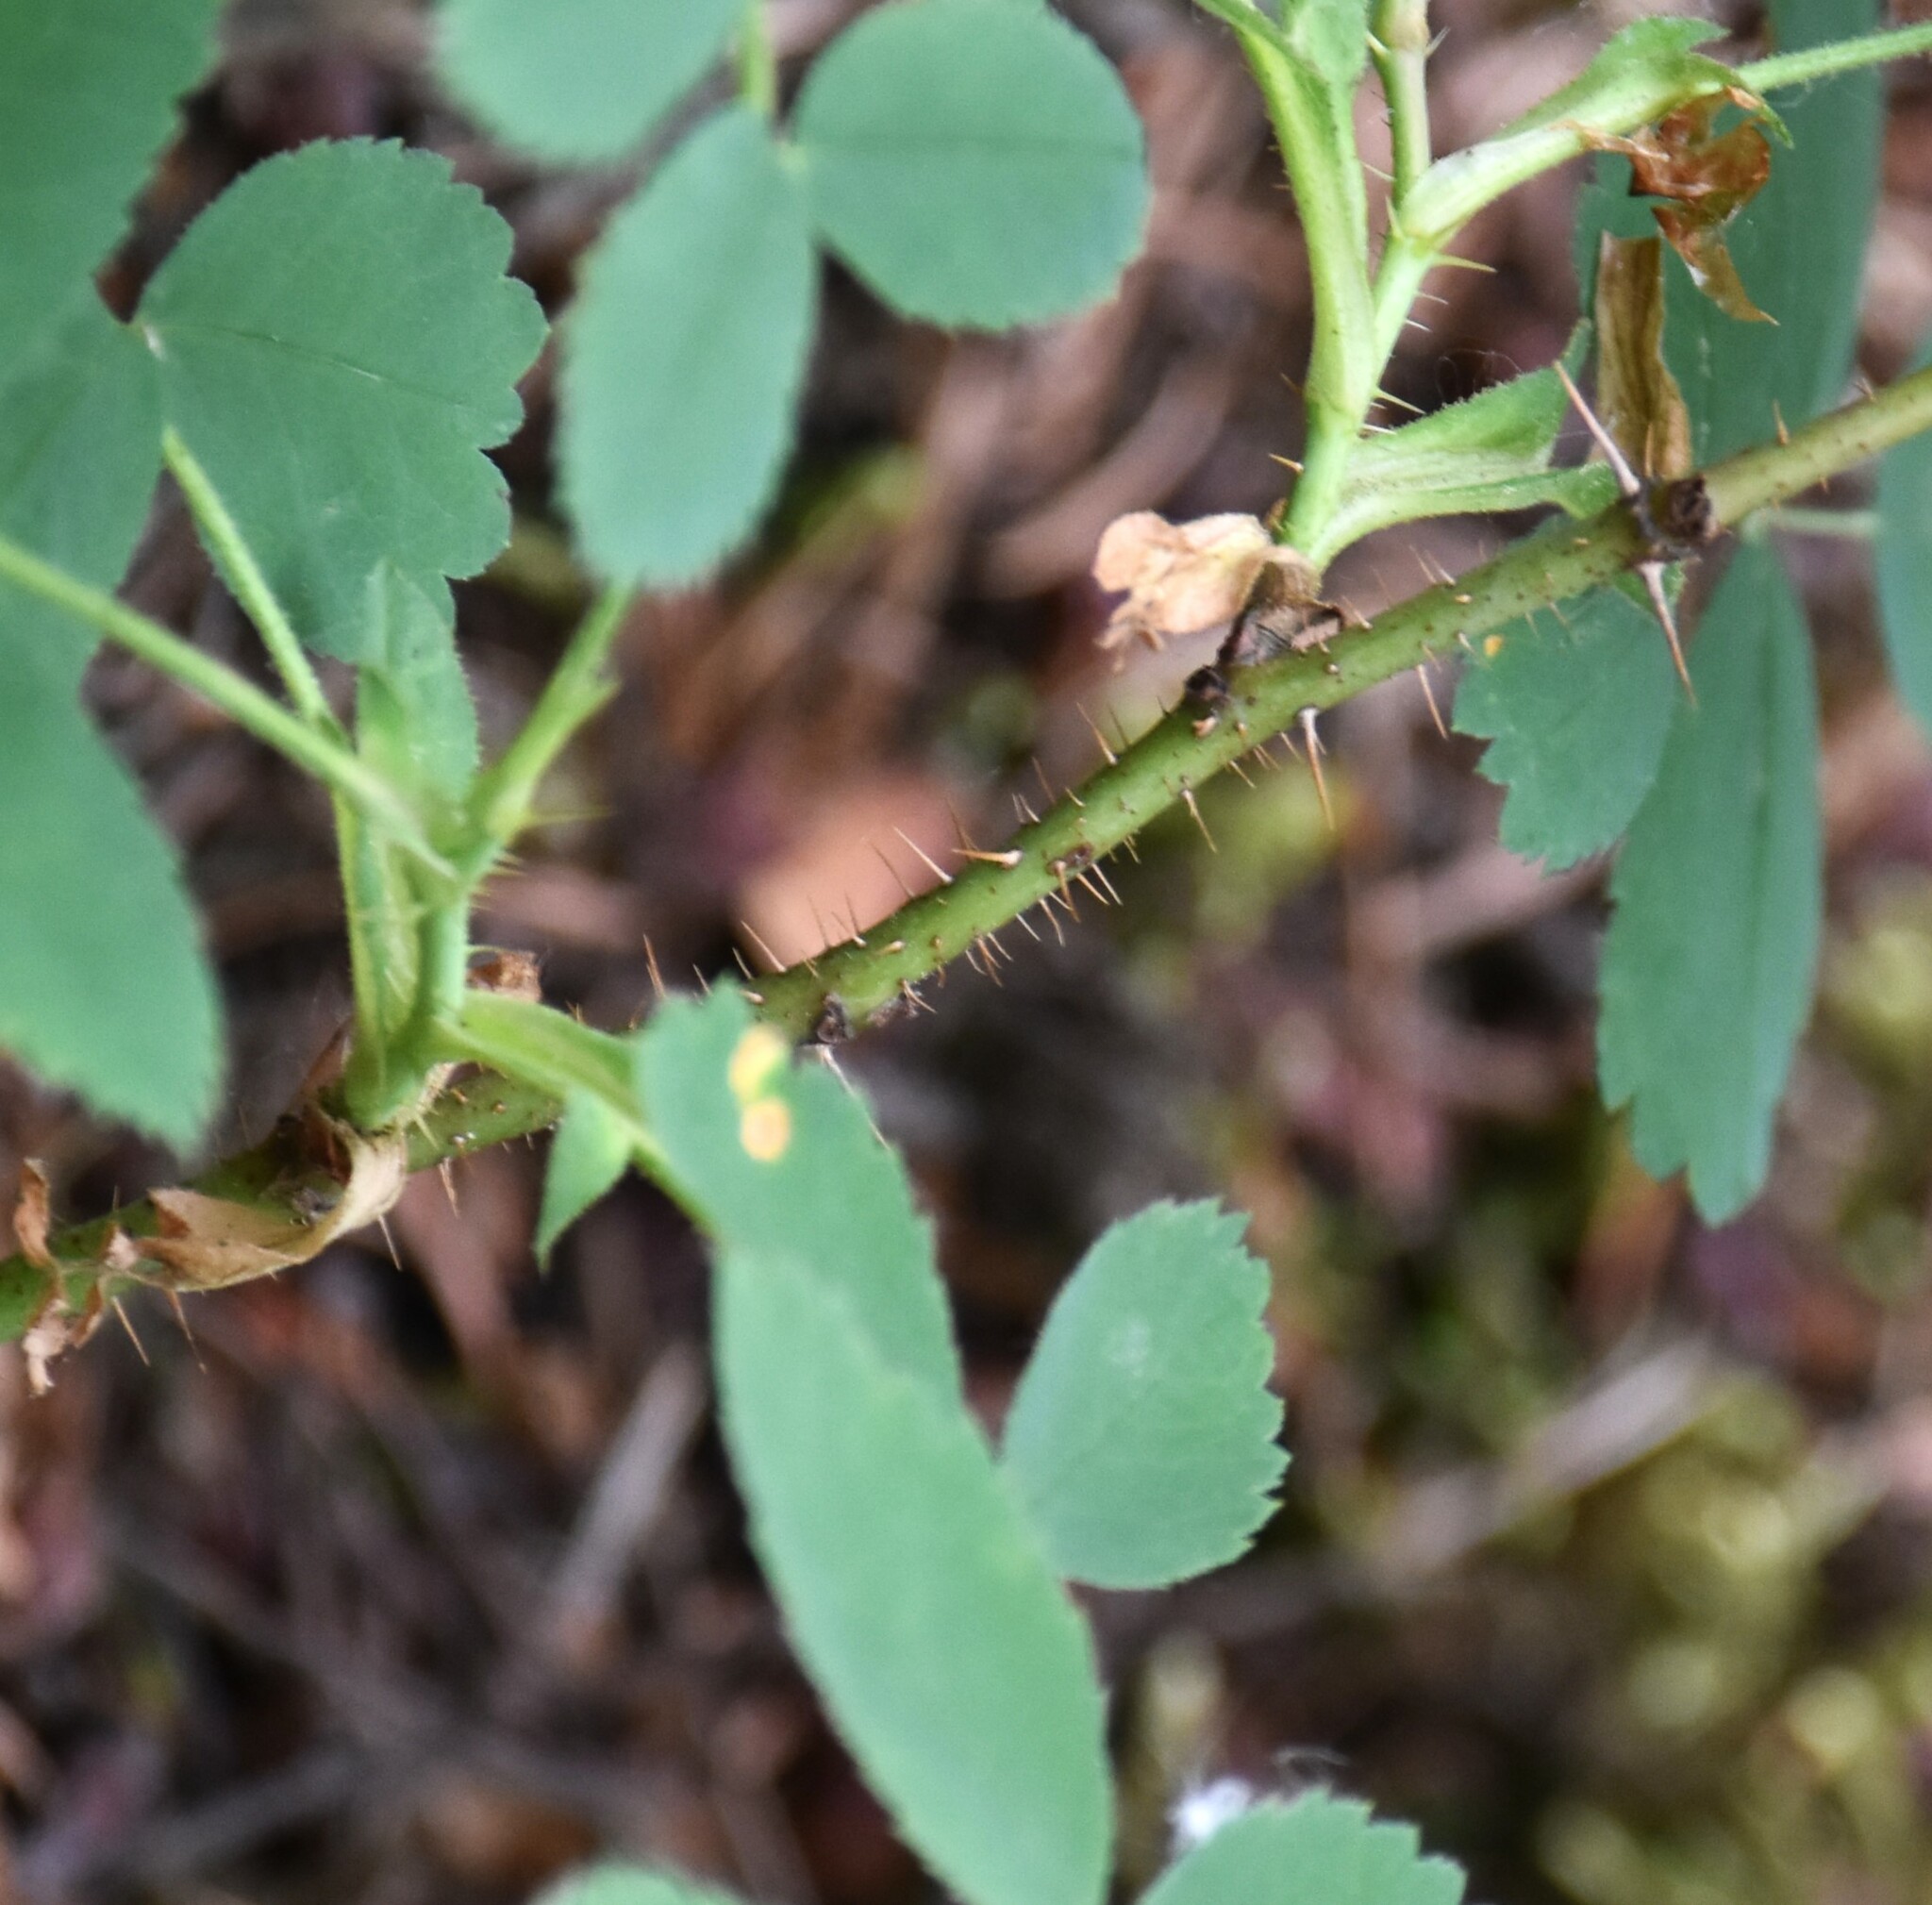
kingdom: Plantae
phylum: Tracheophyta
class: Magnoliopsida
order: Rosales
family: Rosaceae
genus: Rosa
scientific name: Rosa acicularis
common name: Prickly rose
